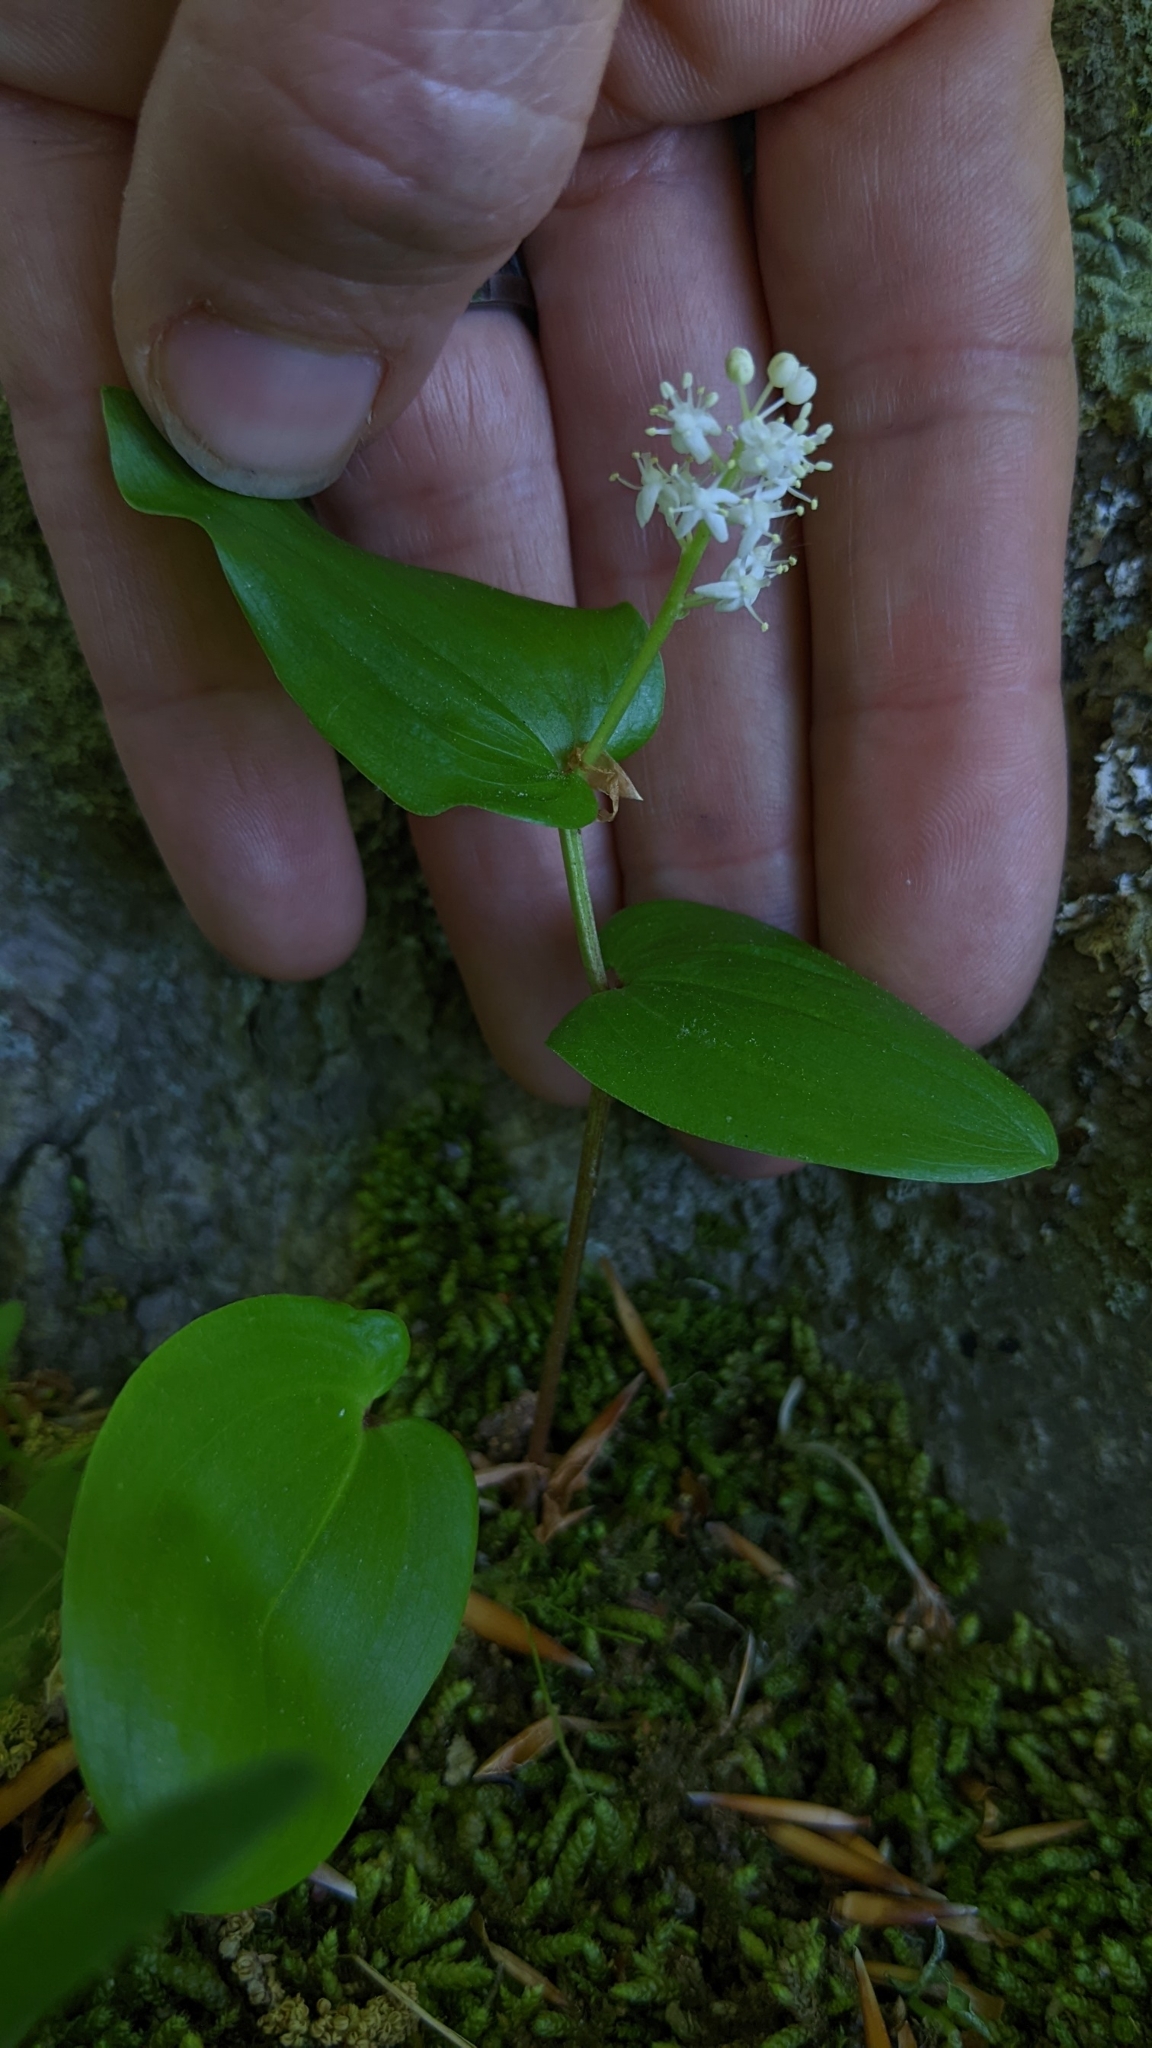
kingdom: Plantae
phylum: Tracheophyta
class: Liliopsida
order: Asparagales
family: Asparagaceae
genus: Maianthemum
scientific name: Maianthemum canadense
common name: False lily-of-the-valley
